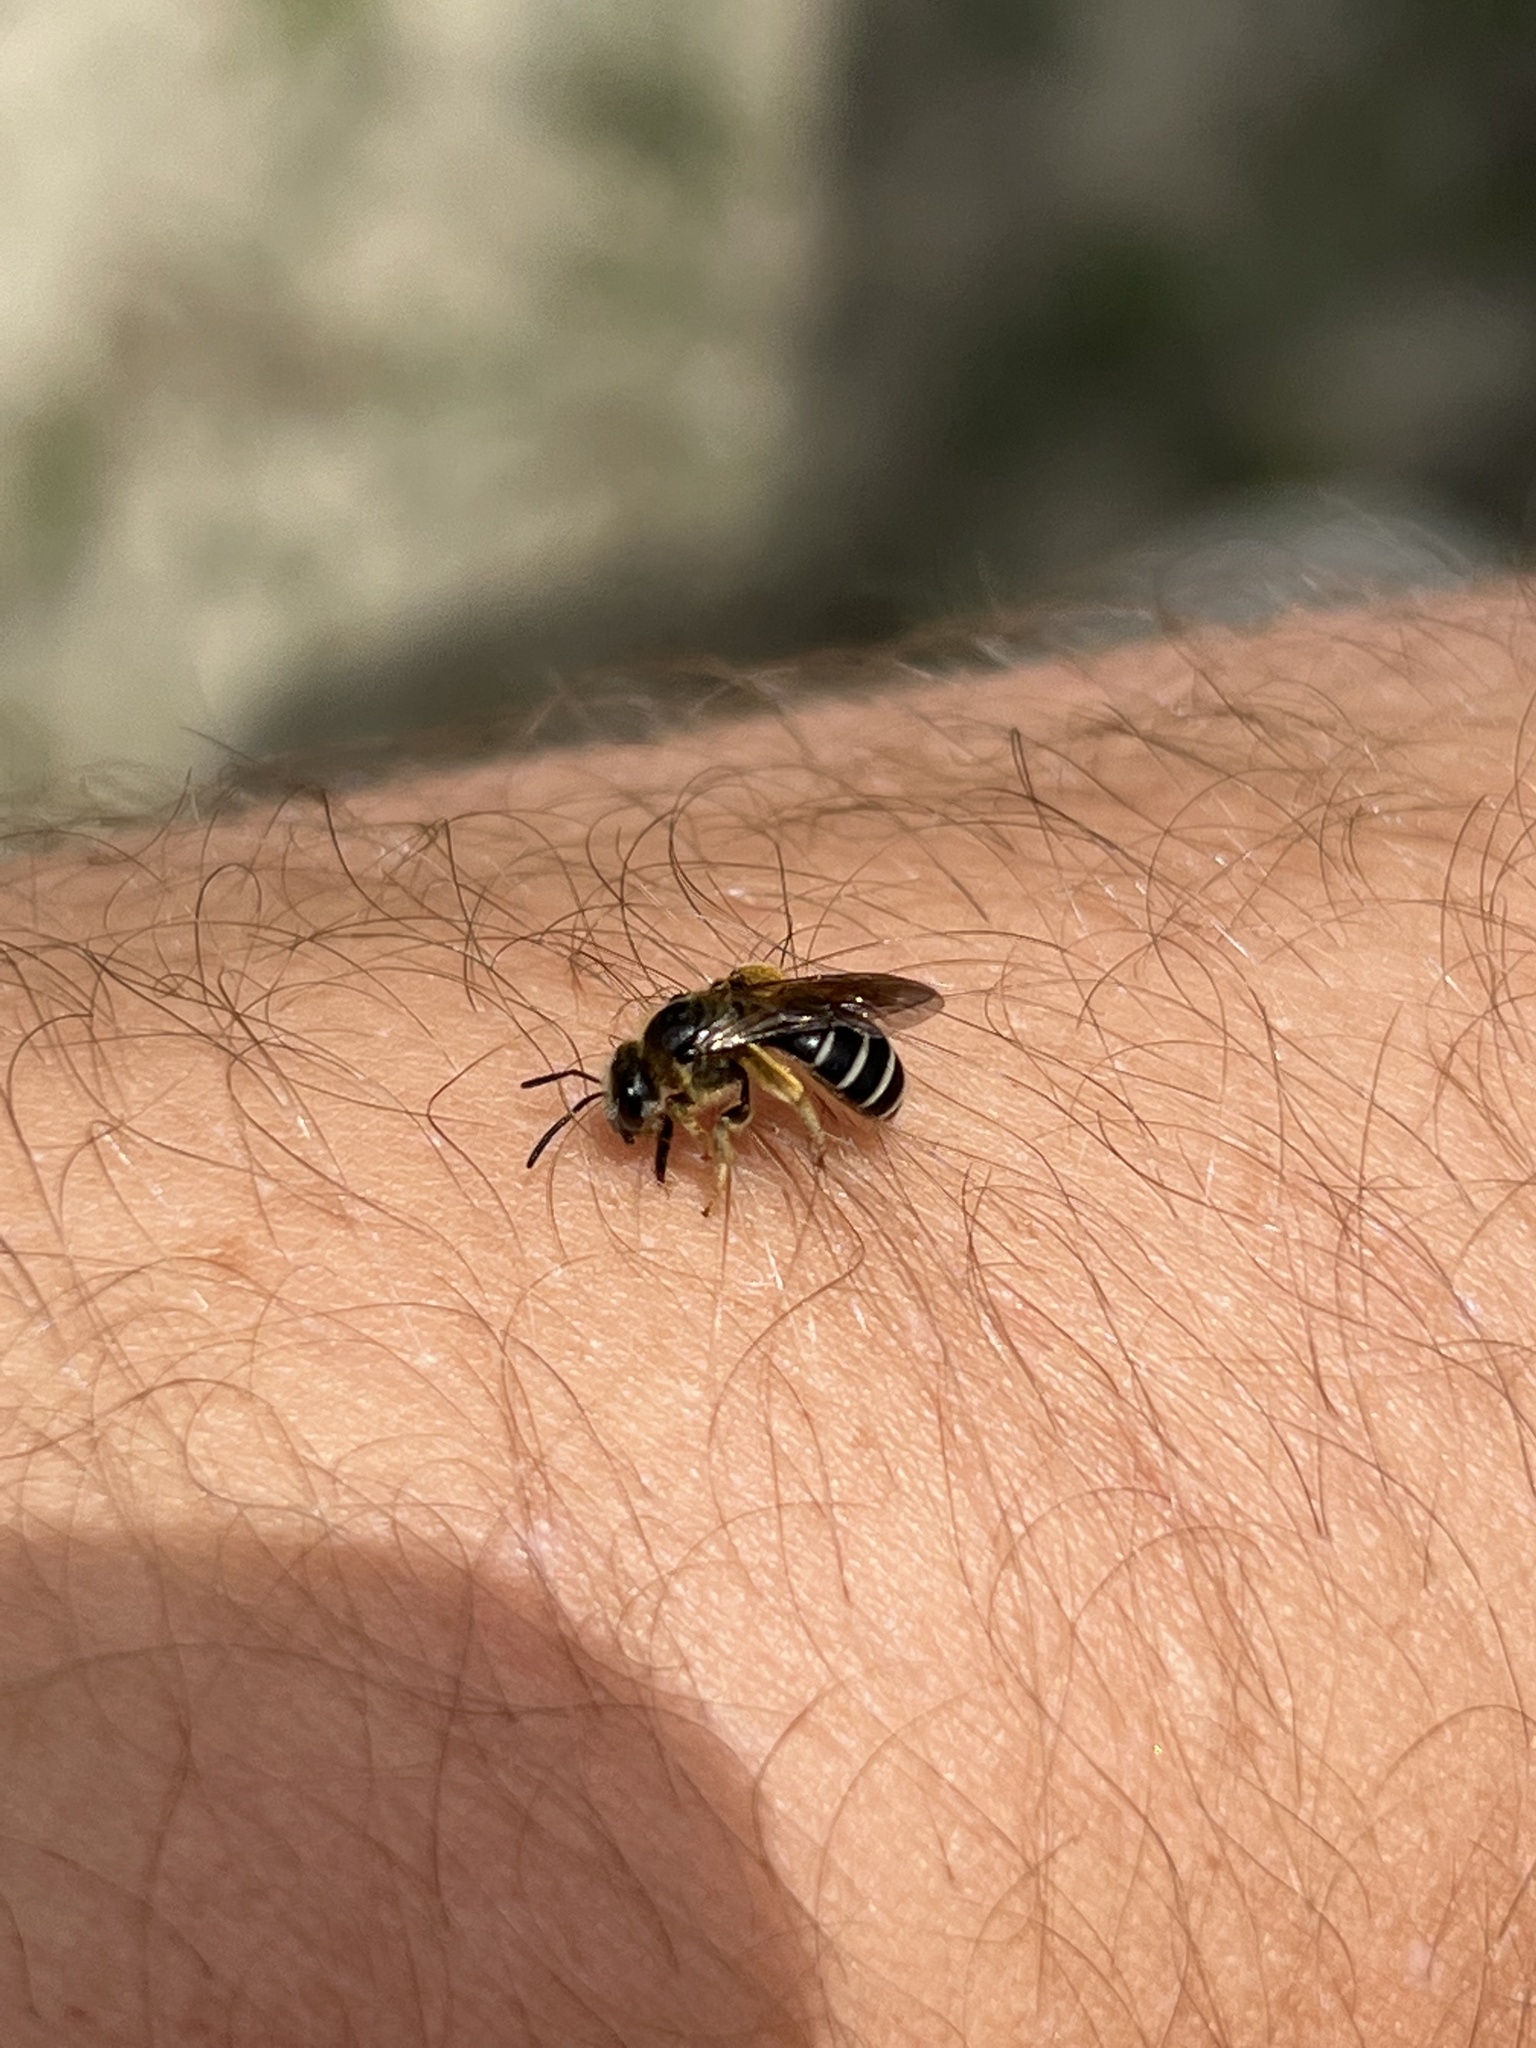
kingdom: Animalia
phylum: Arthropoda
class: Insecta
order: Hymenoptera
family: Halictidae
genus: Halictus
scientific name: Halictus rubicundus
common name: Orange-legged furrow bee
